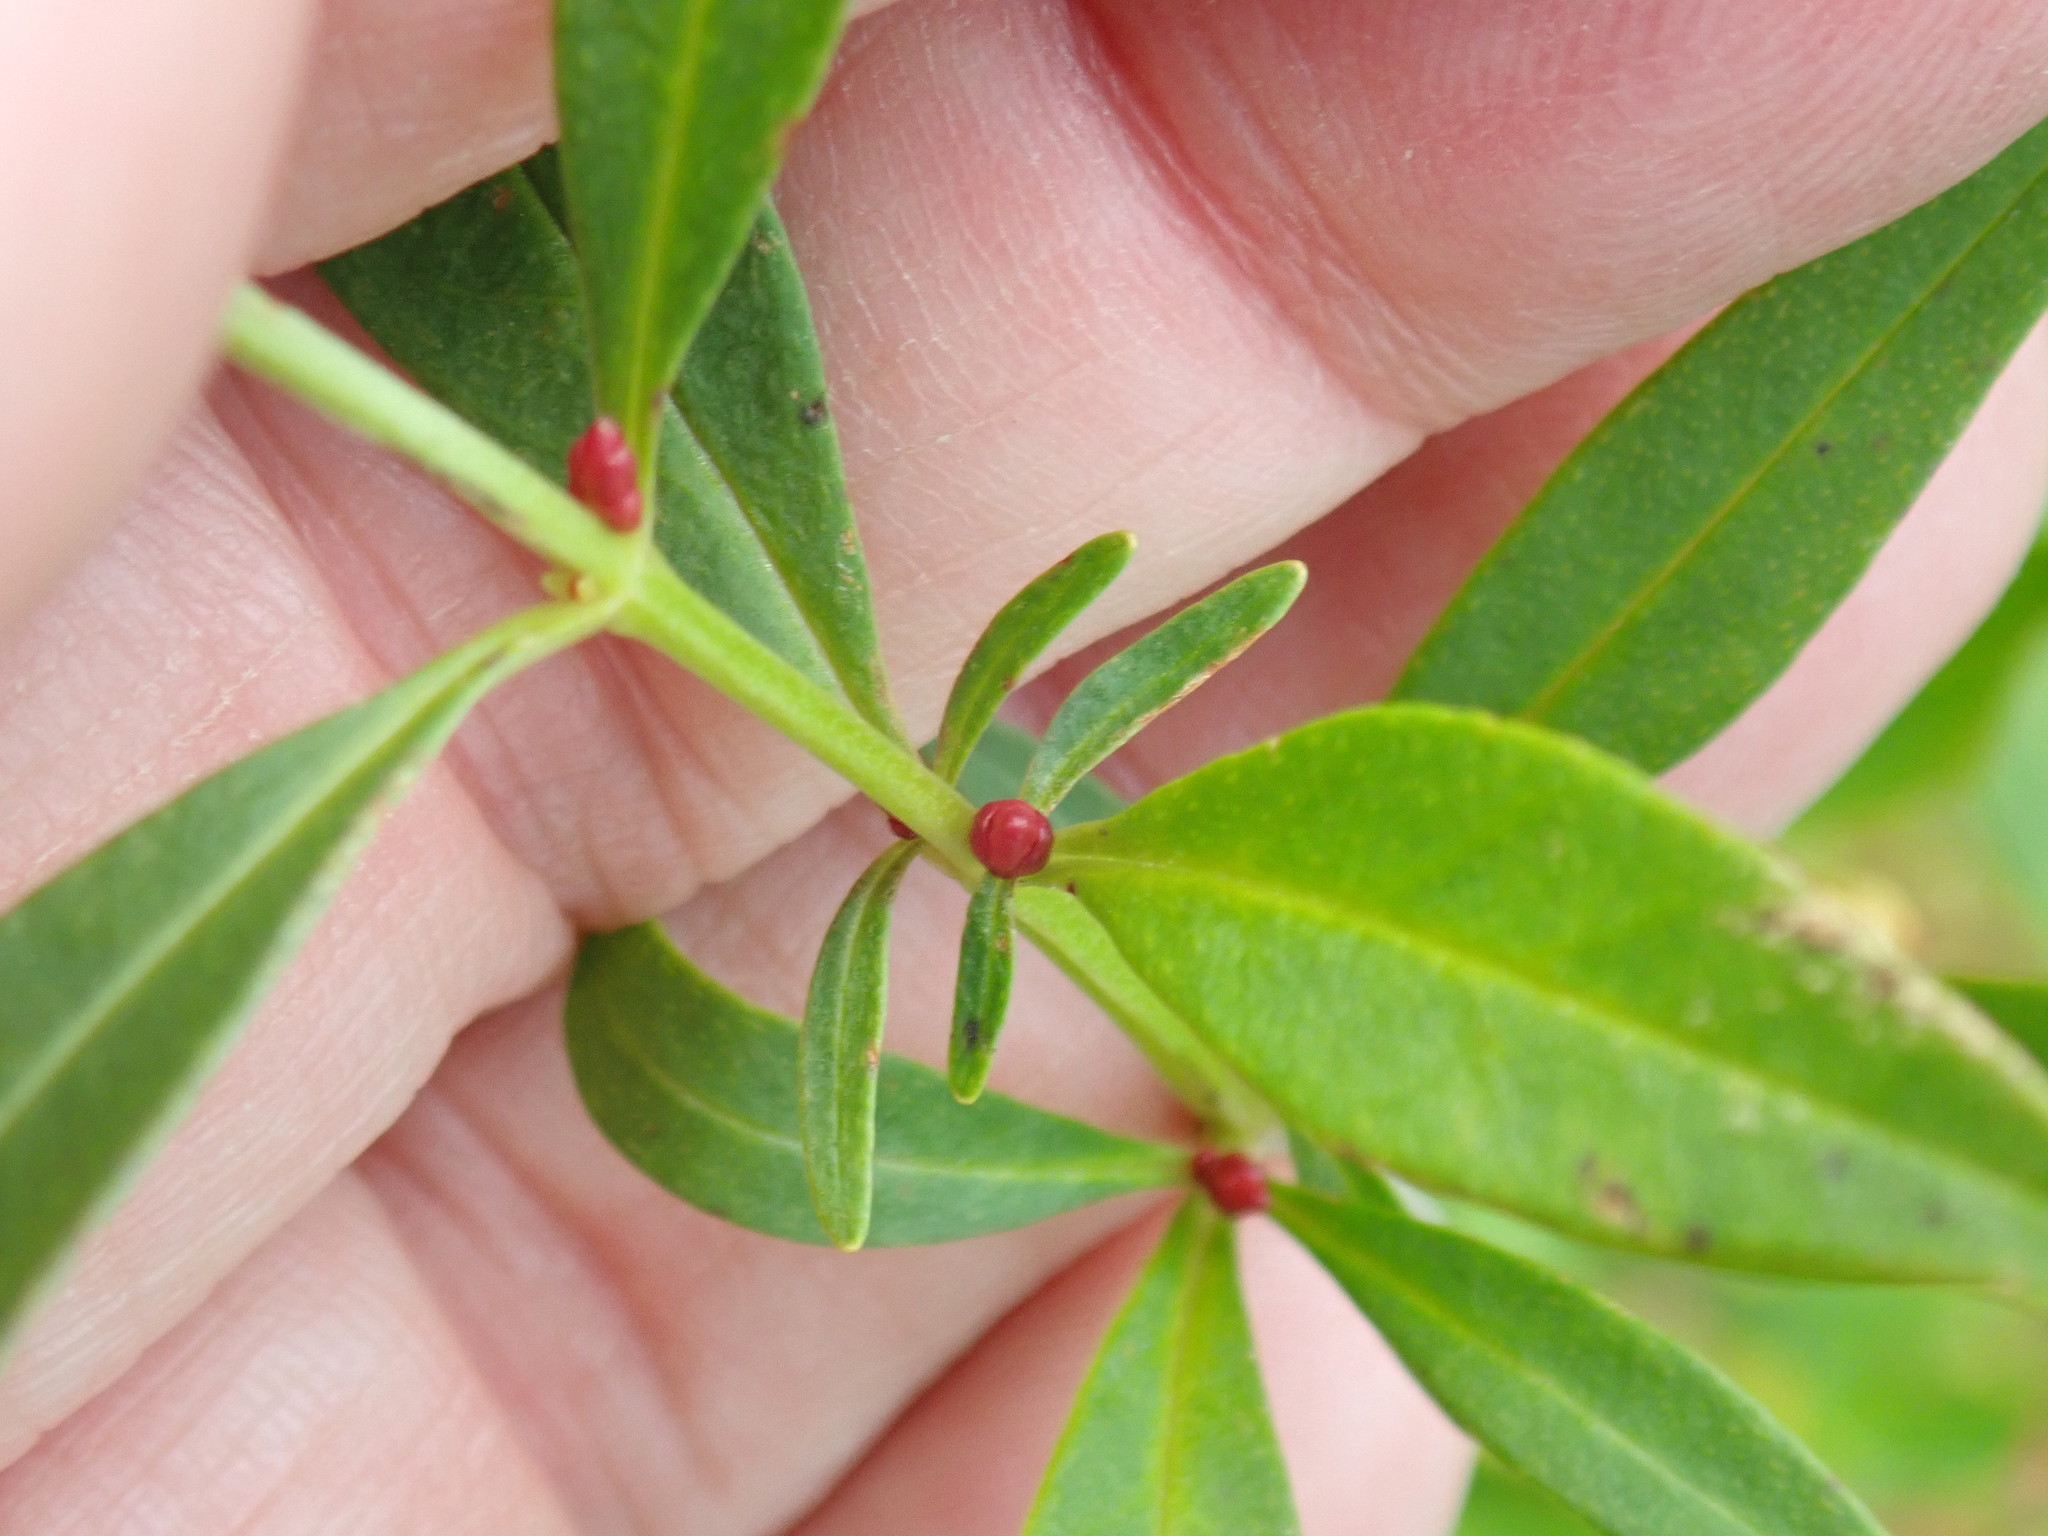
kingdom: Plantae
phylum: Tracheophyta
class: Magnoliopsida
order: Ericales
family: Primulaceae
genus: Lysimachia
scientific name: Lysimachia terrestris
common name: Lake loosestrife
